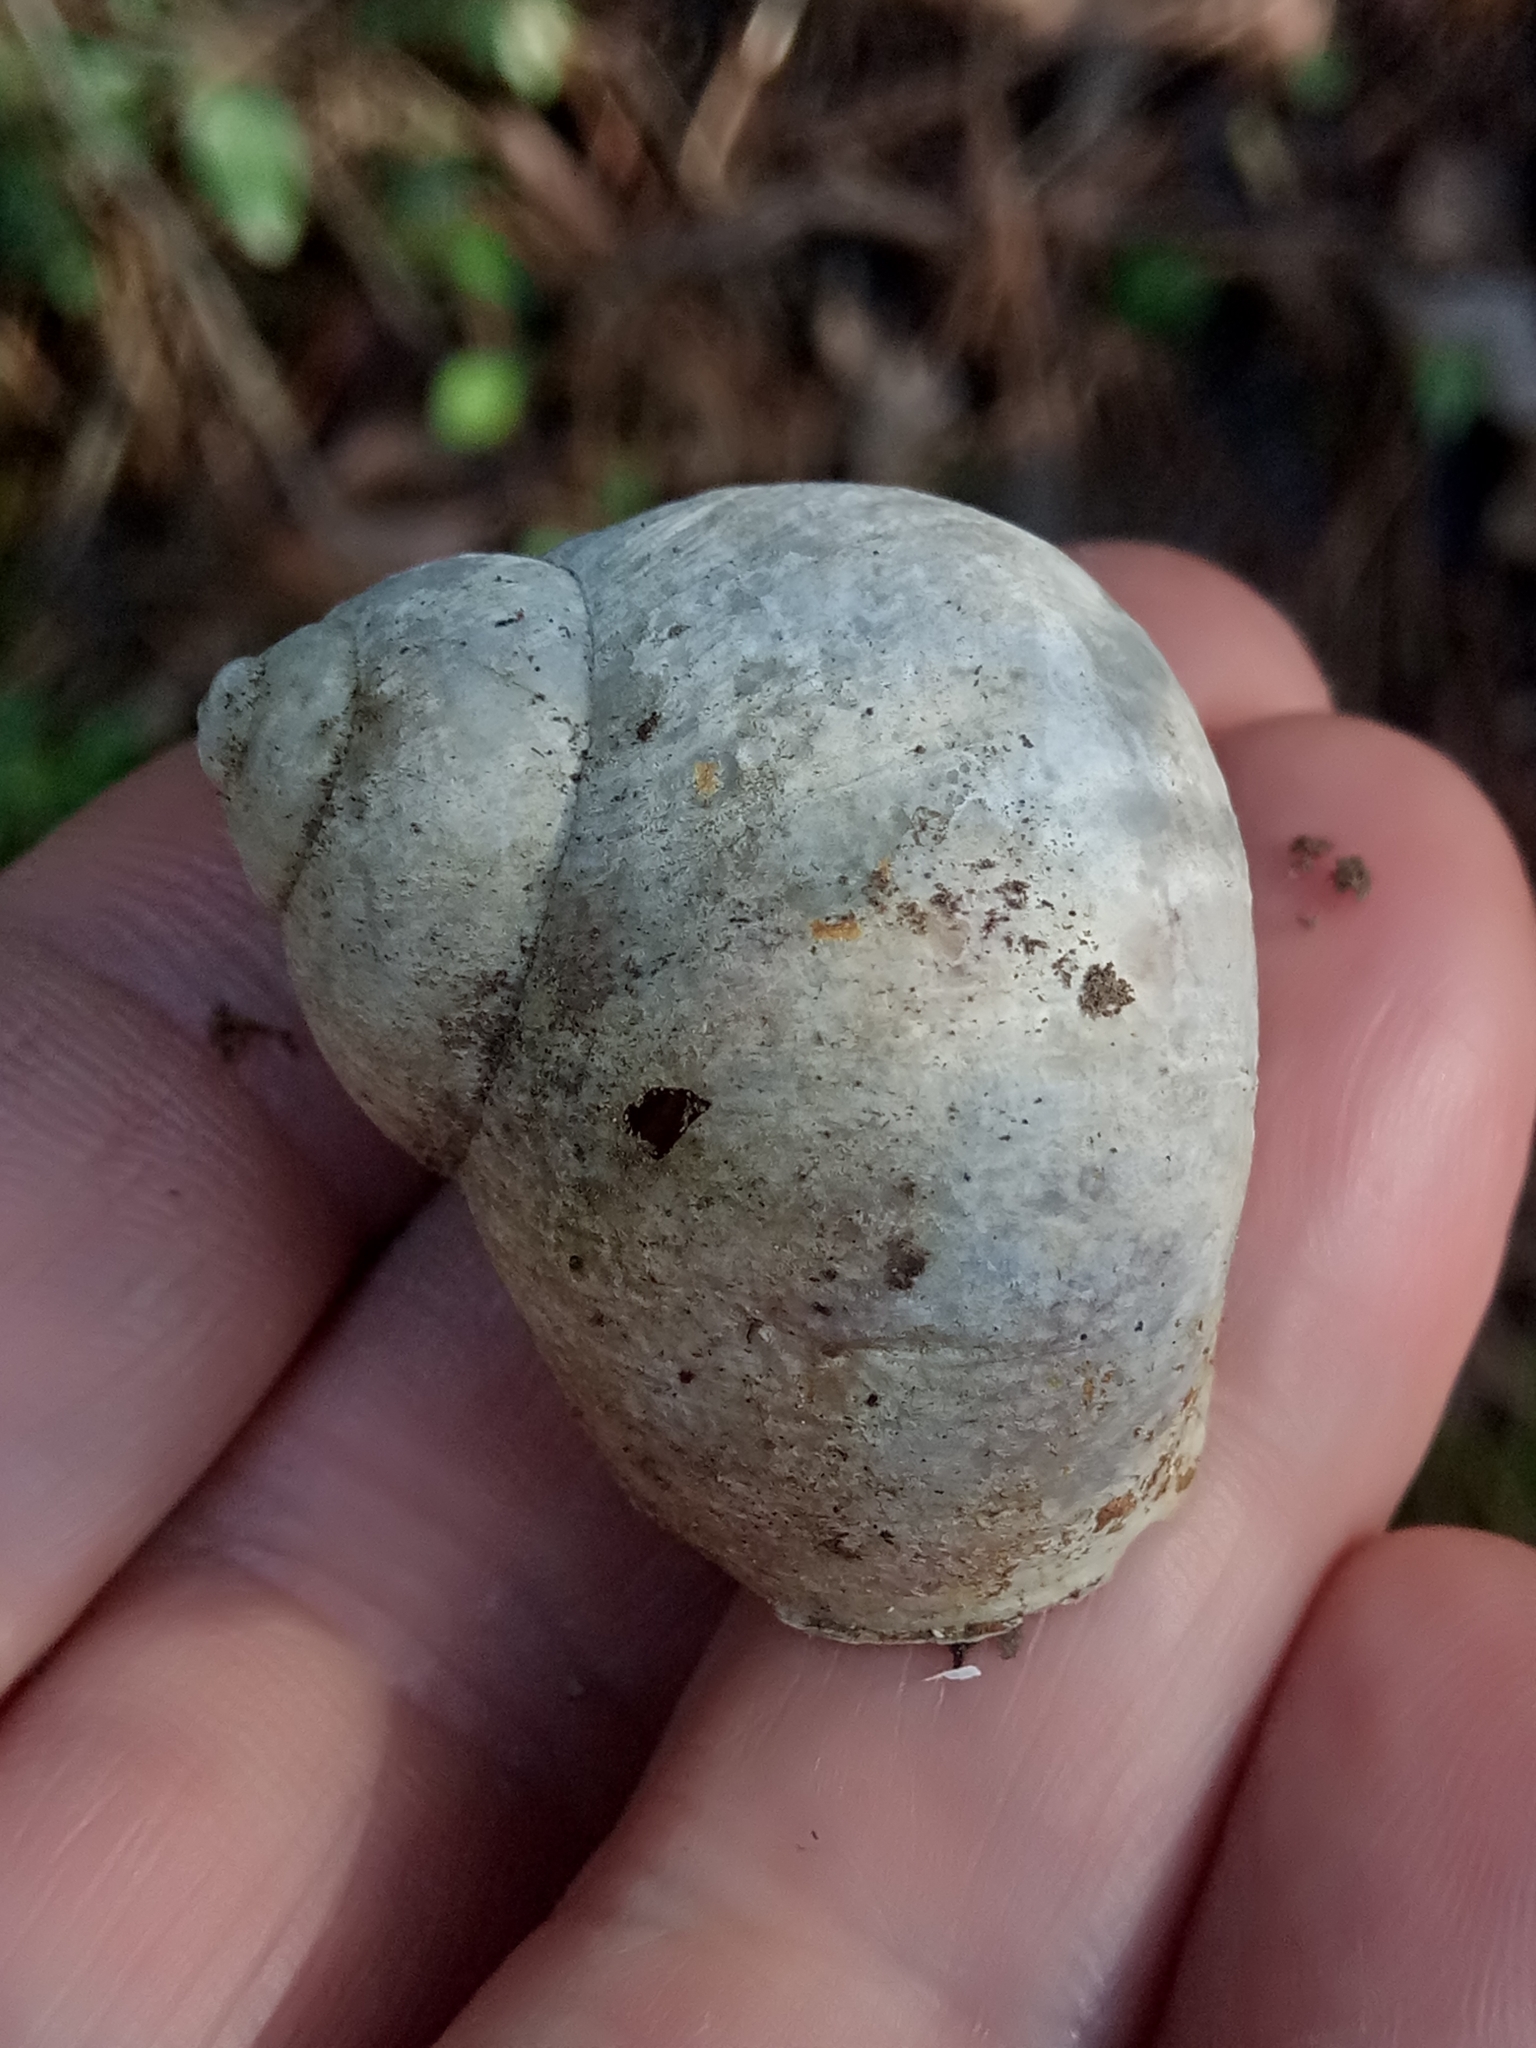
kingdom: Animalia
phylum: Mollusca
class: Gastropoda
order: Stylommatophora
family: Helicidae
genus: Cornu
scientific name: Cornu aspersum
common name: Brown garden snail
